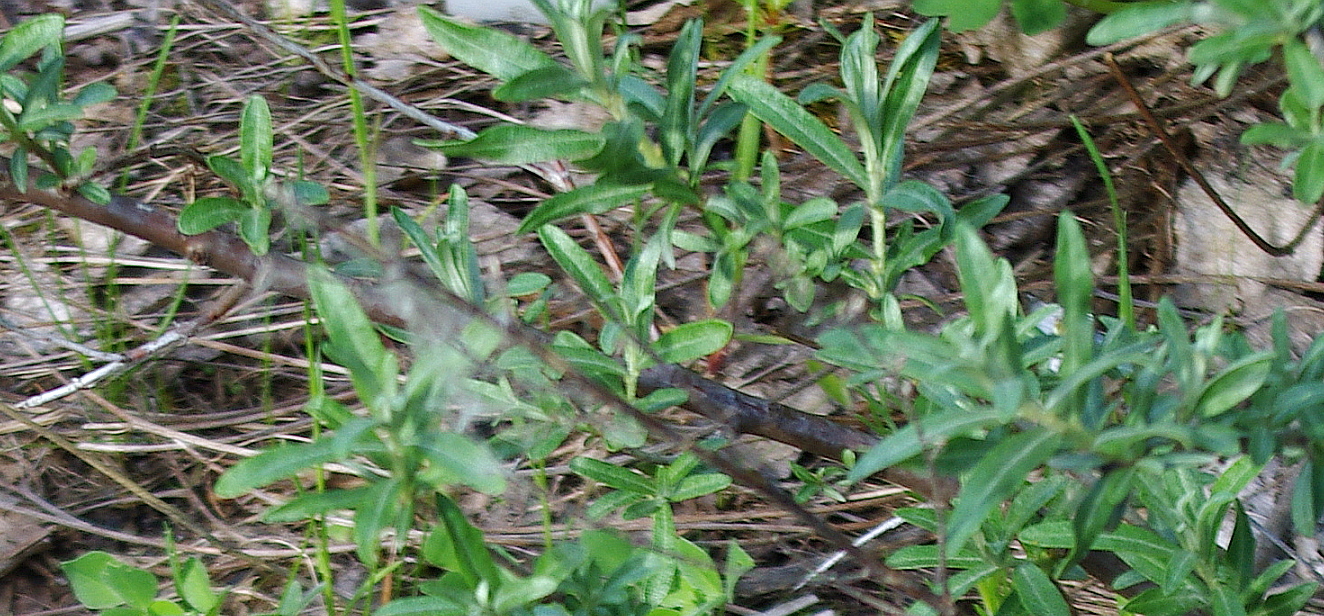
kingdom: Plantae
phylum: Tracheophyta
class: Magnoliopsida
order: Rosales
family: Elaeagnaceae
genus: Hippophae
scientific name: Hippophae rhamnoides
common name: Sea-buckthorn
